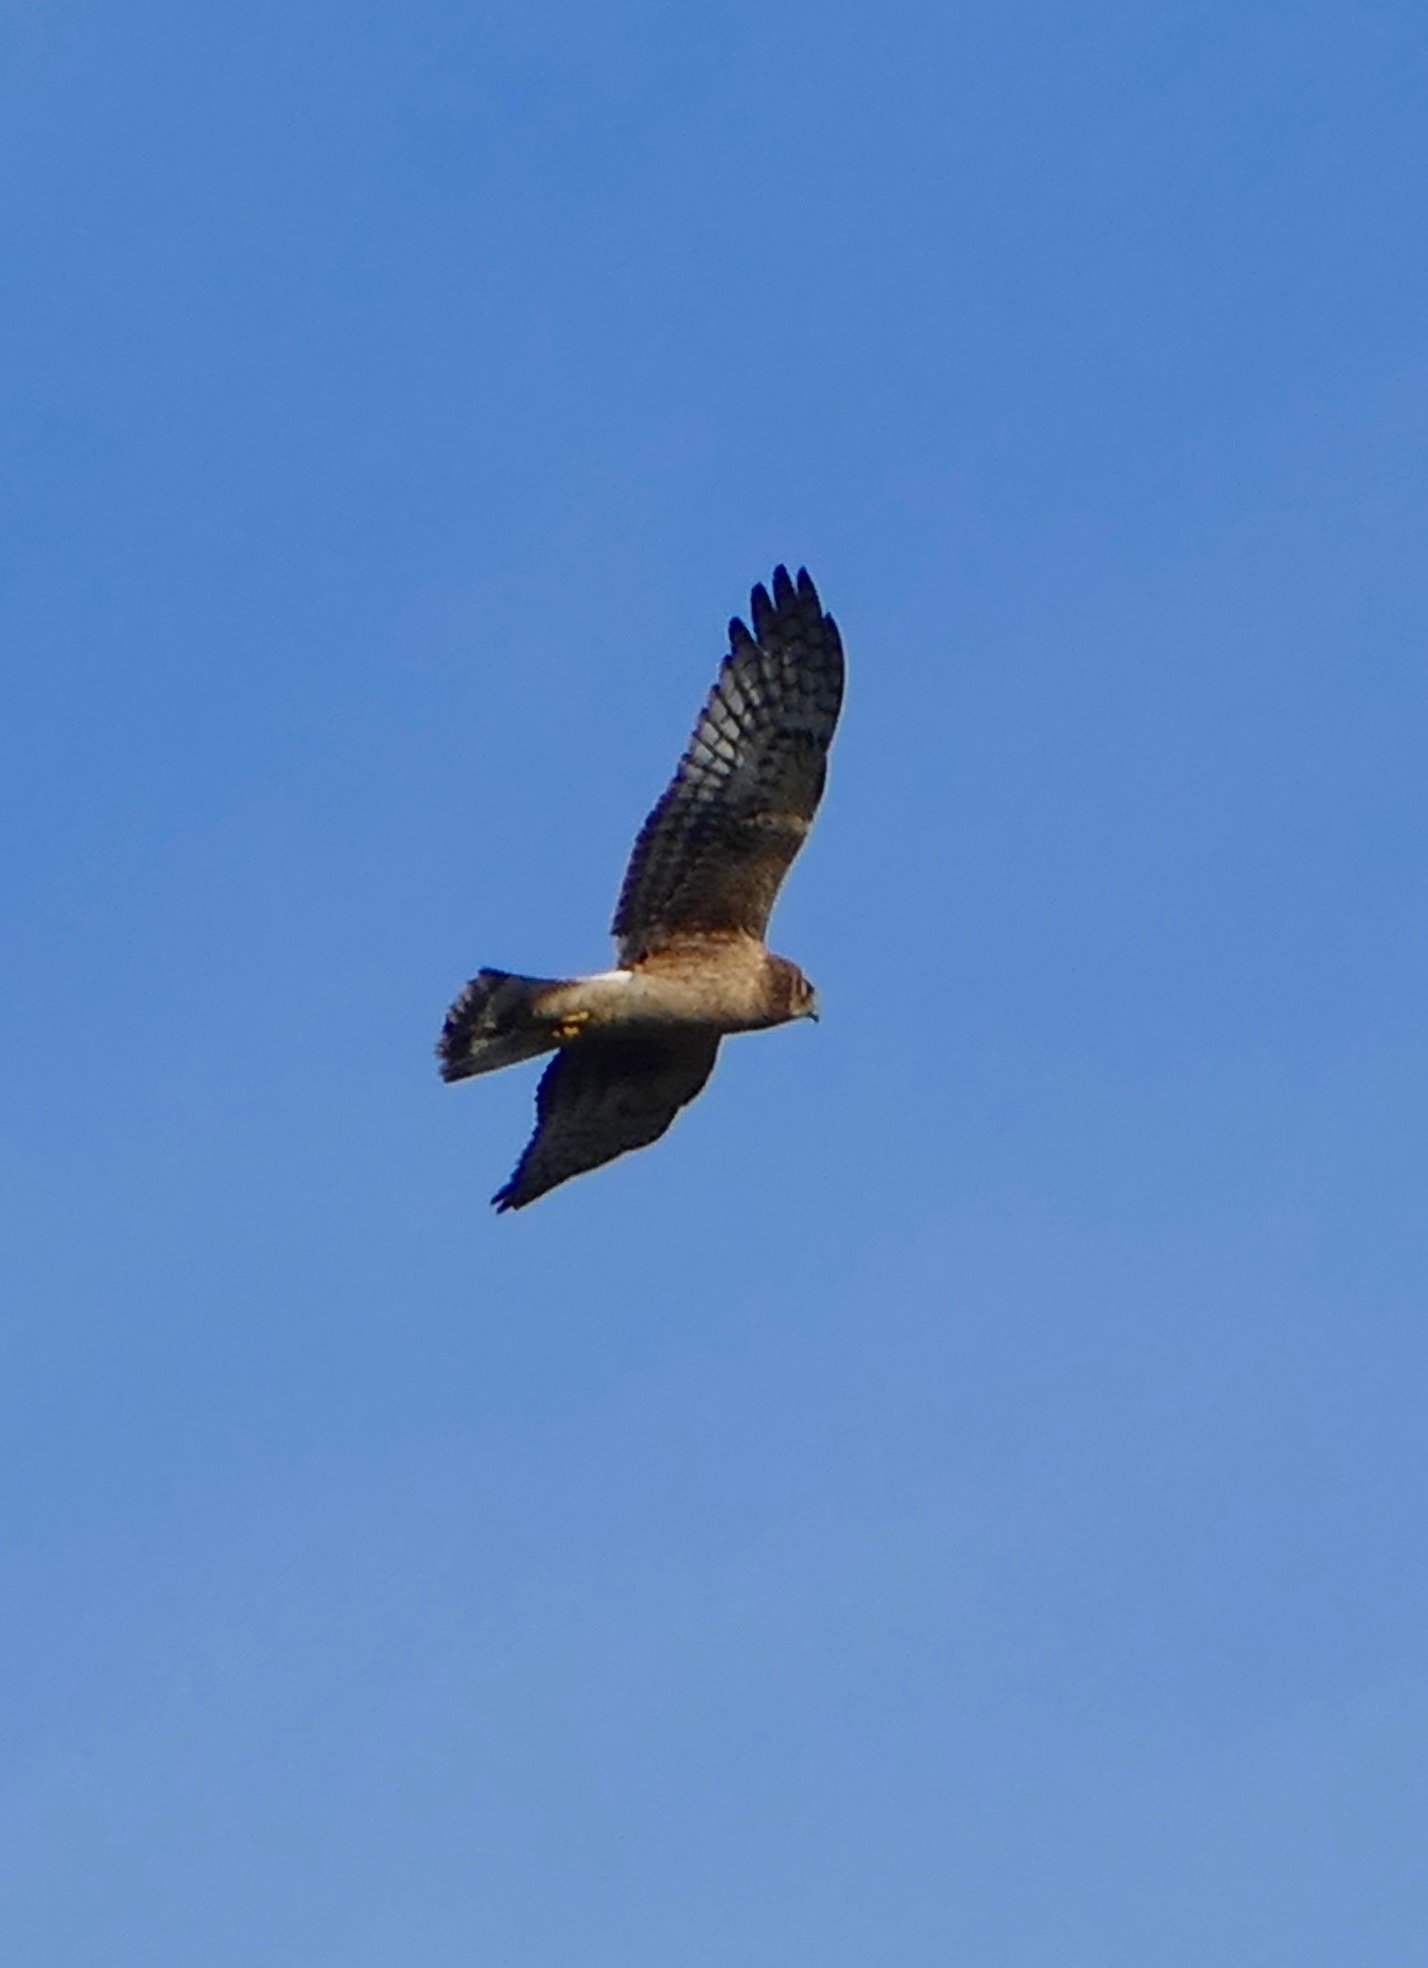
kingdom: Animalia
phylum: Chordata
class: Aves
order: Accipitriformes
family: Accipitridae
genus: Circus
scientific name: Circus cyaneus
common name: Hen harrier
